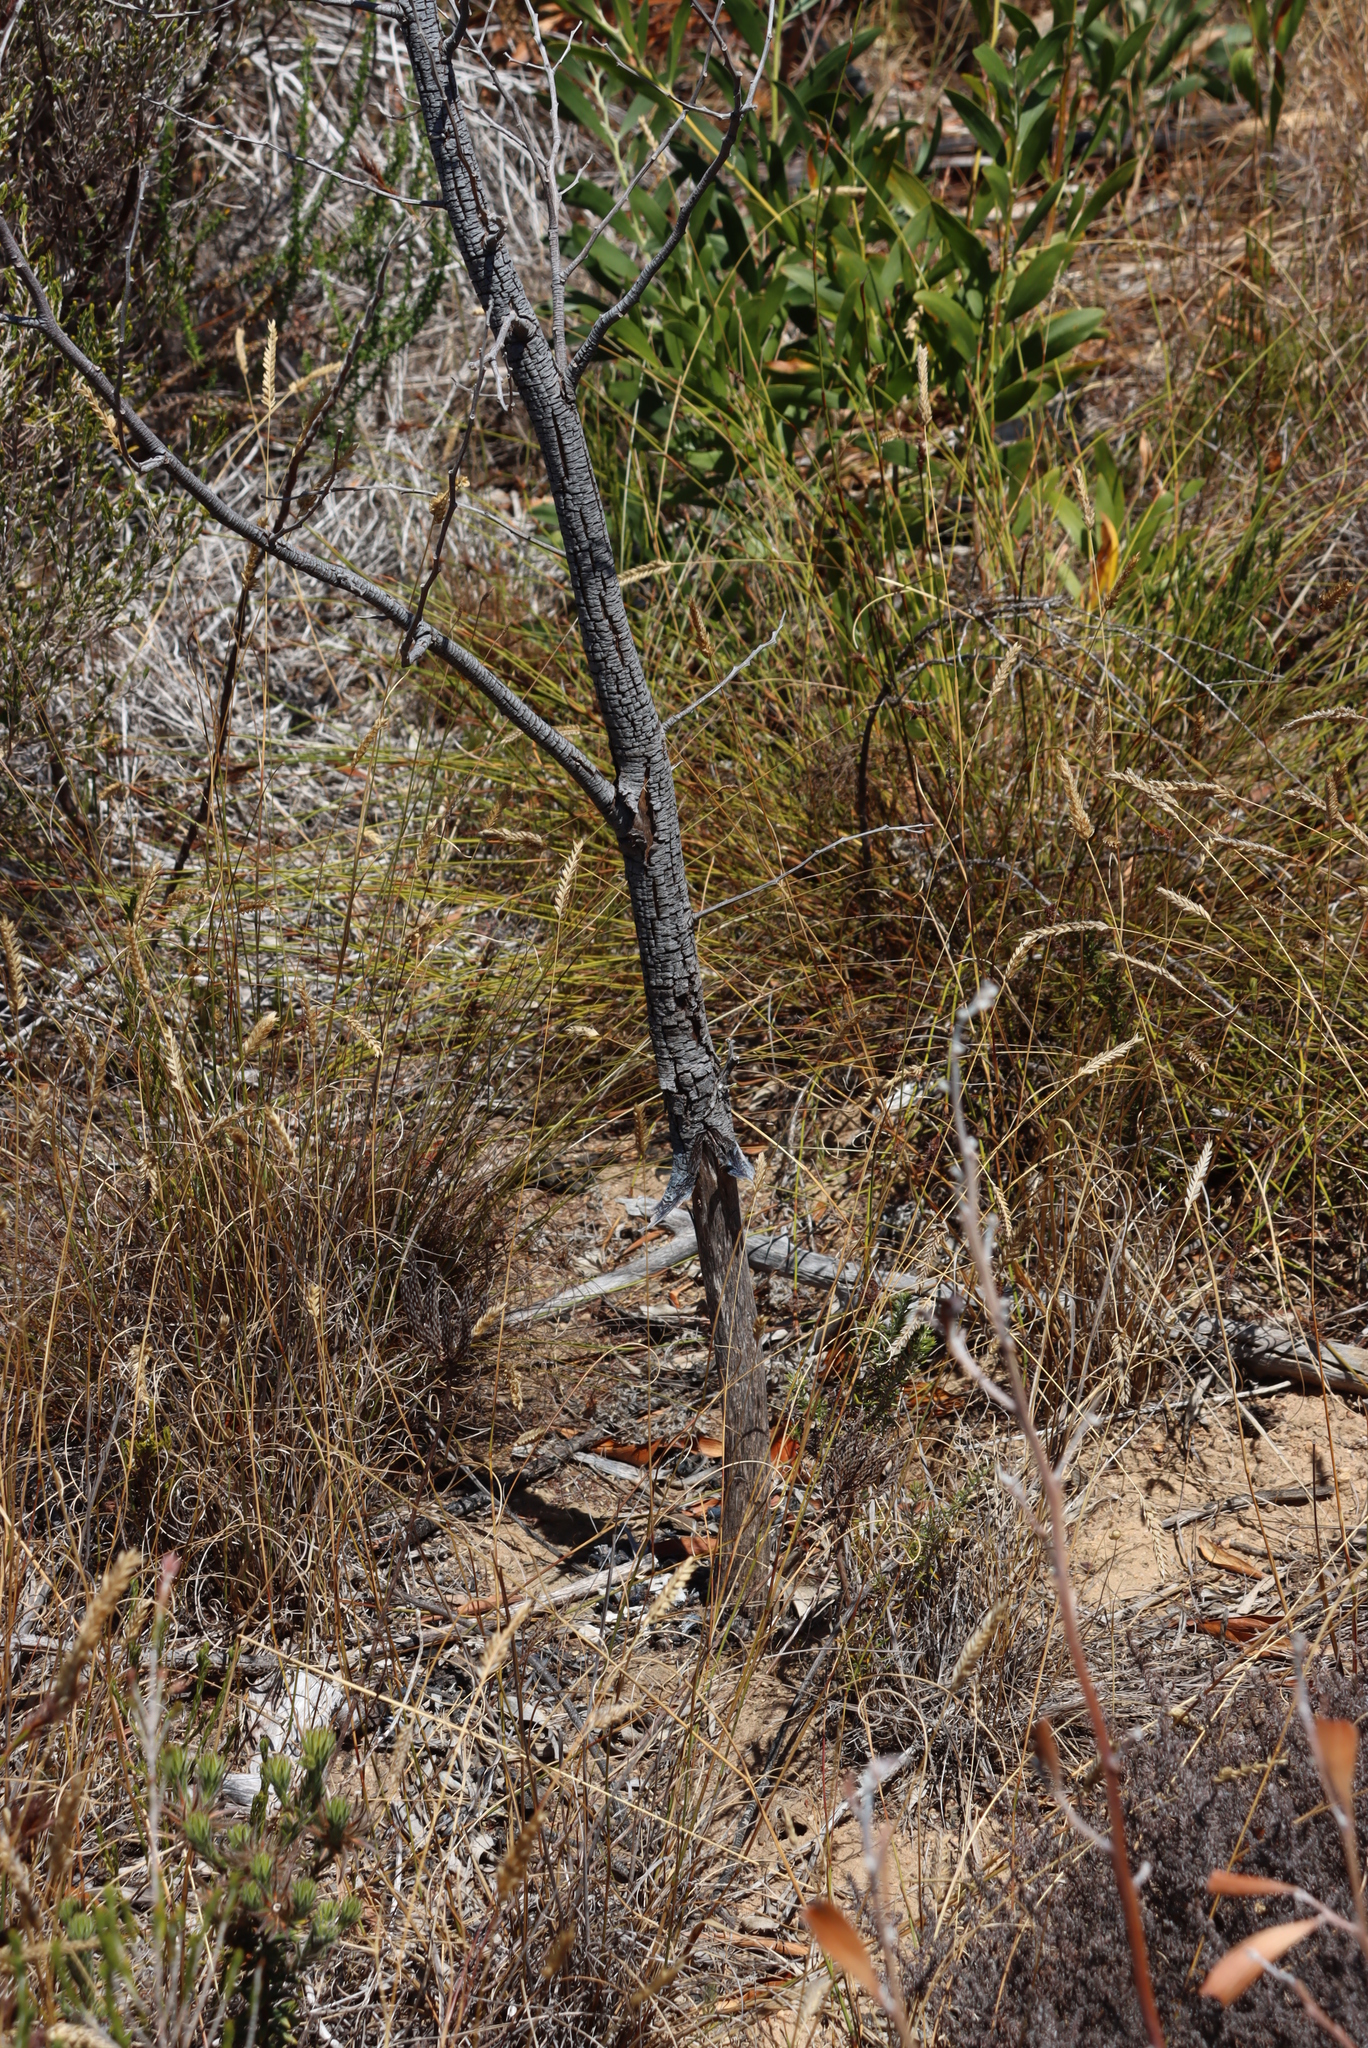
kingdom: Plantae
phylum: Tracheophyta
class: Magnoliopsida
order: Fabales
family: Fabaceae
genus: Acacia
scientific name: Acacia melanoxylon
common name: Blackwood
